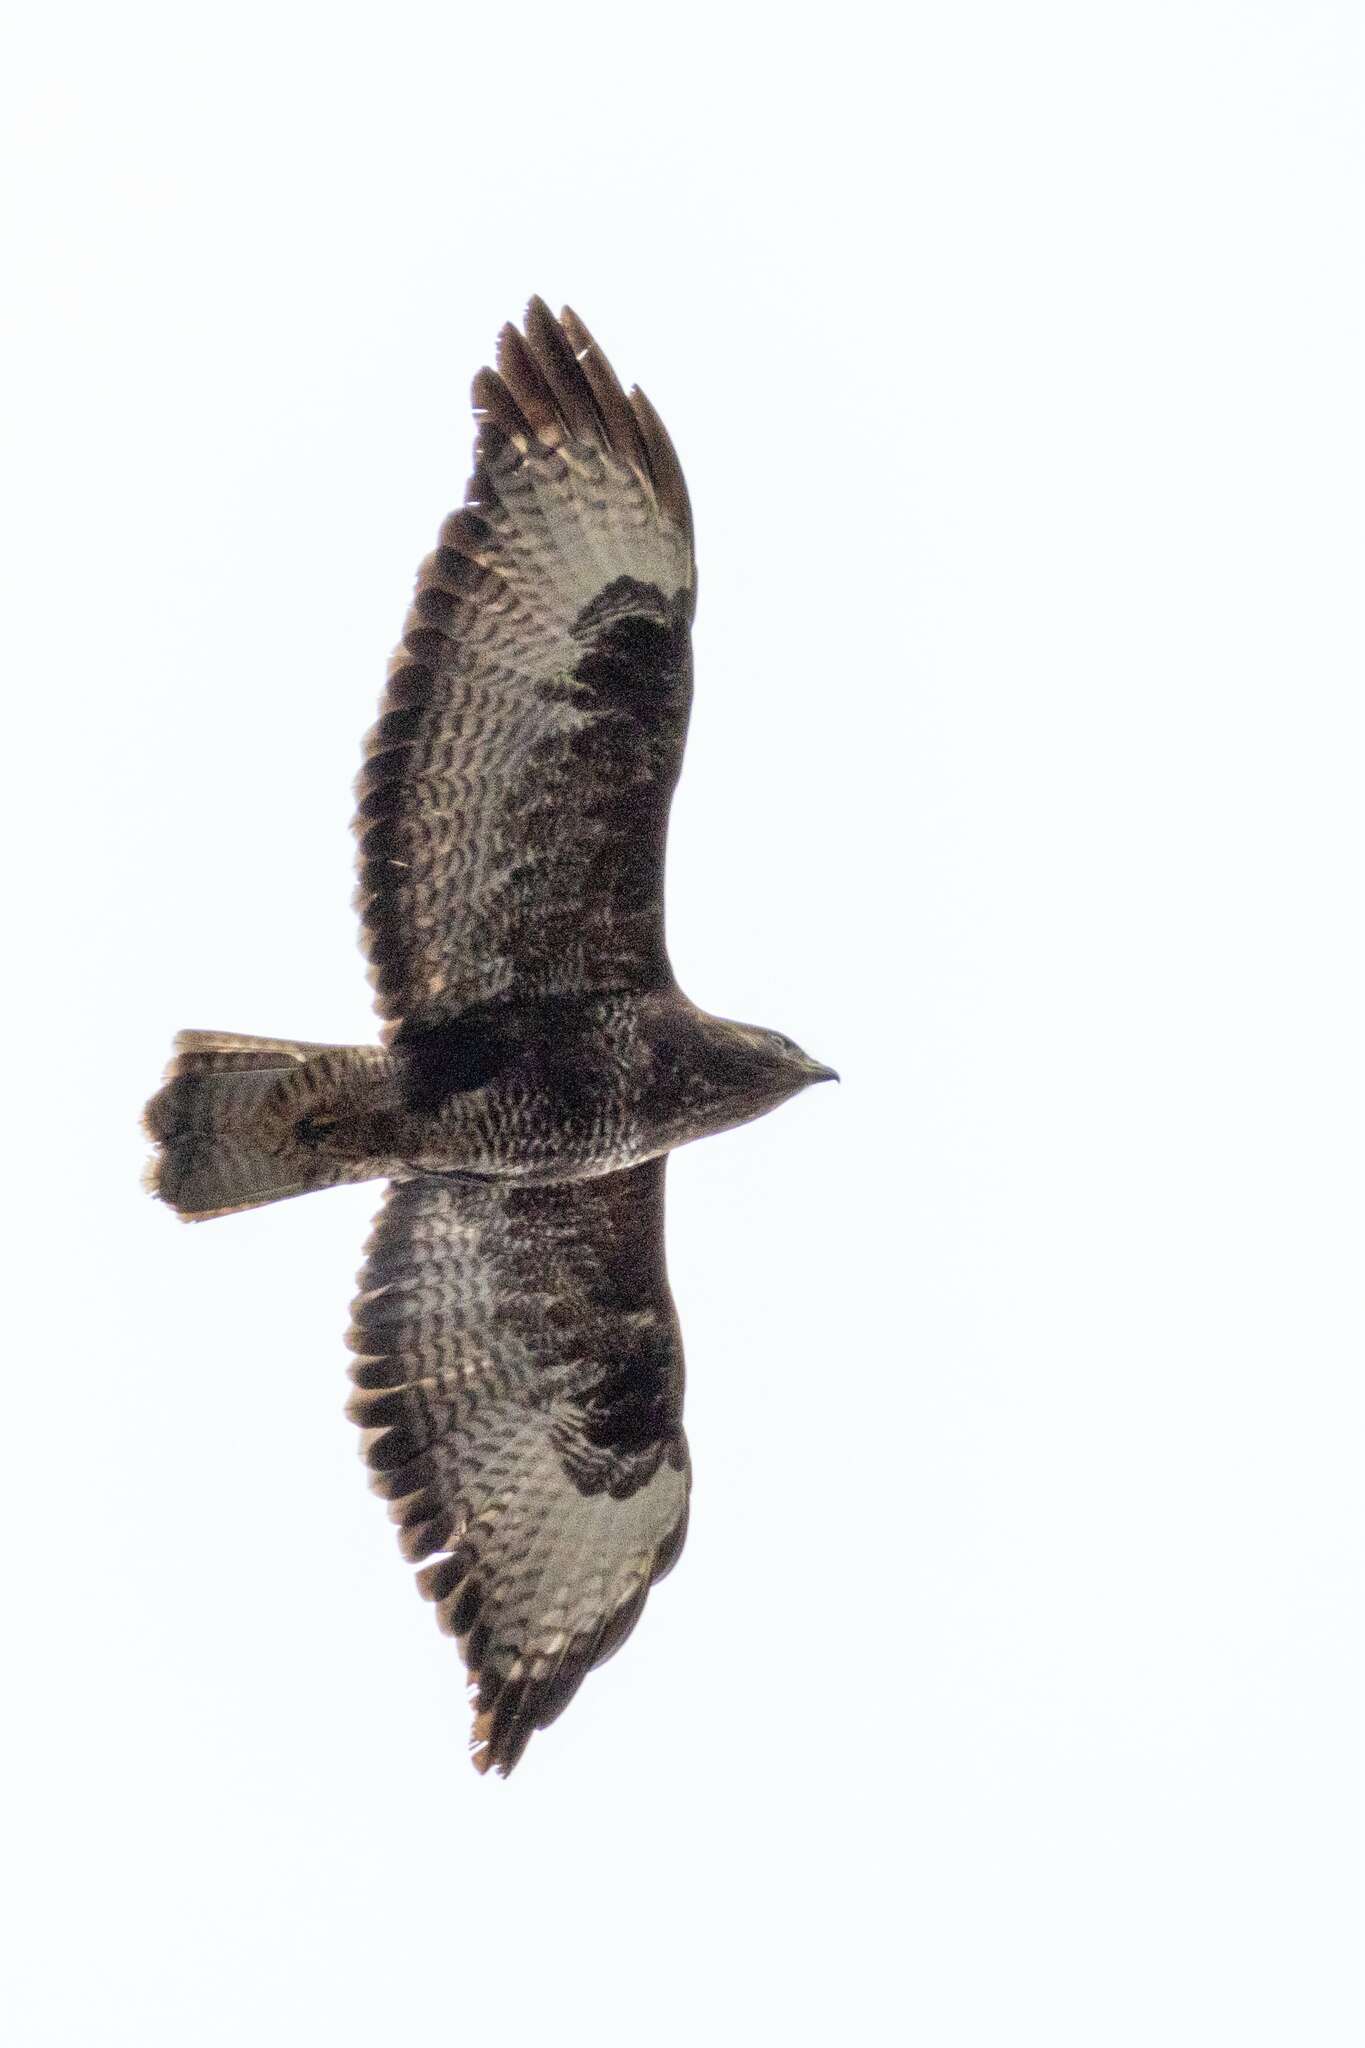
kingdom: Animalia
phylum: Chordata
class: Aves
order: Accipitriformes
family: Accipitridae
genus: Buteo
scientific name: Buteo buteo
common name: Common buzzard
